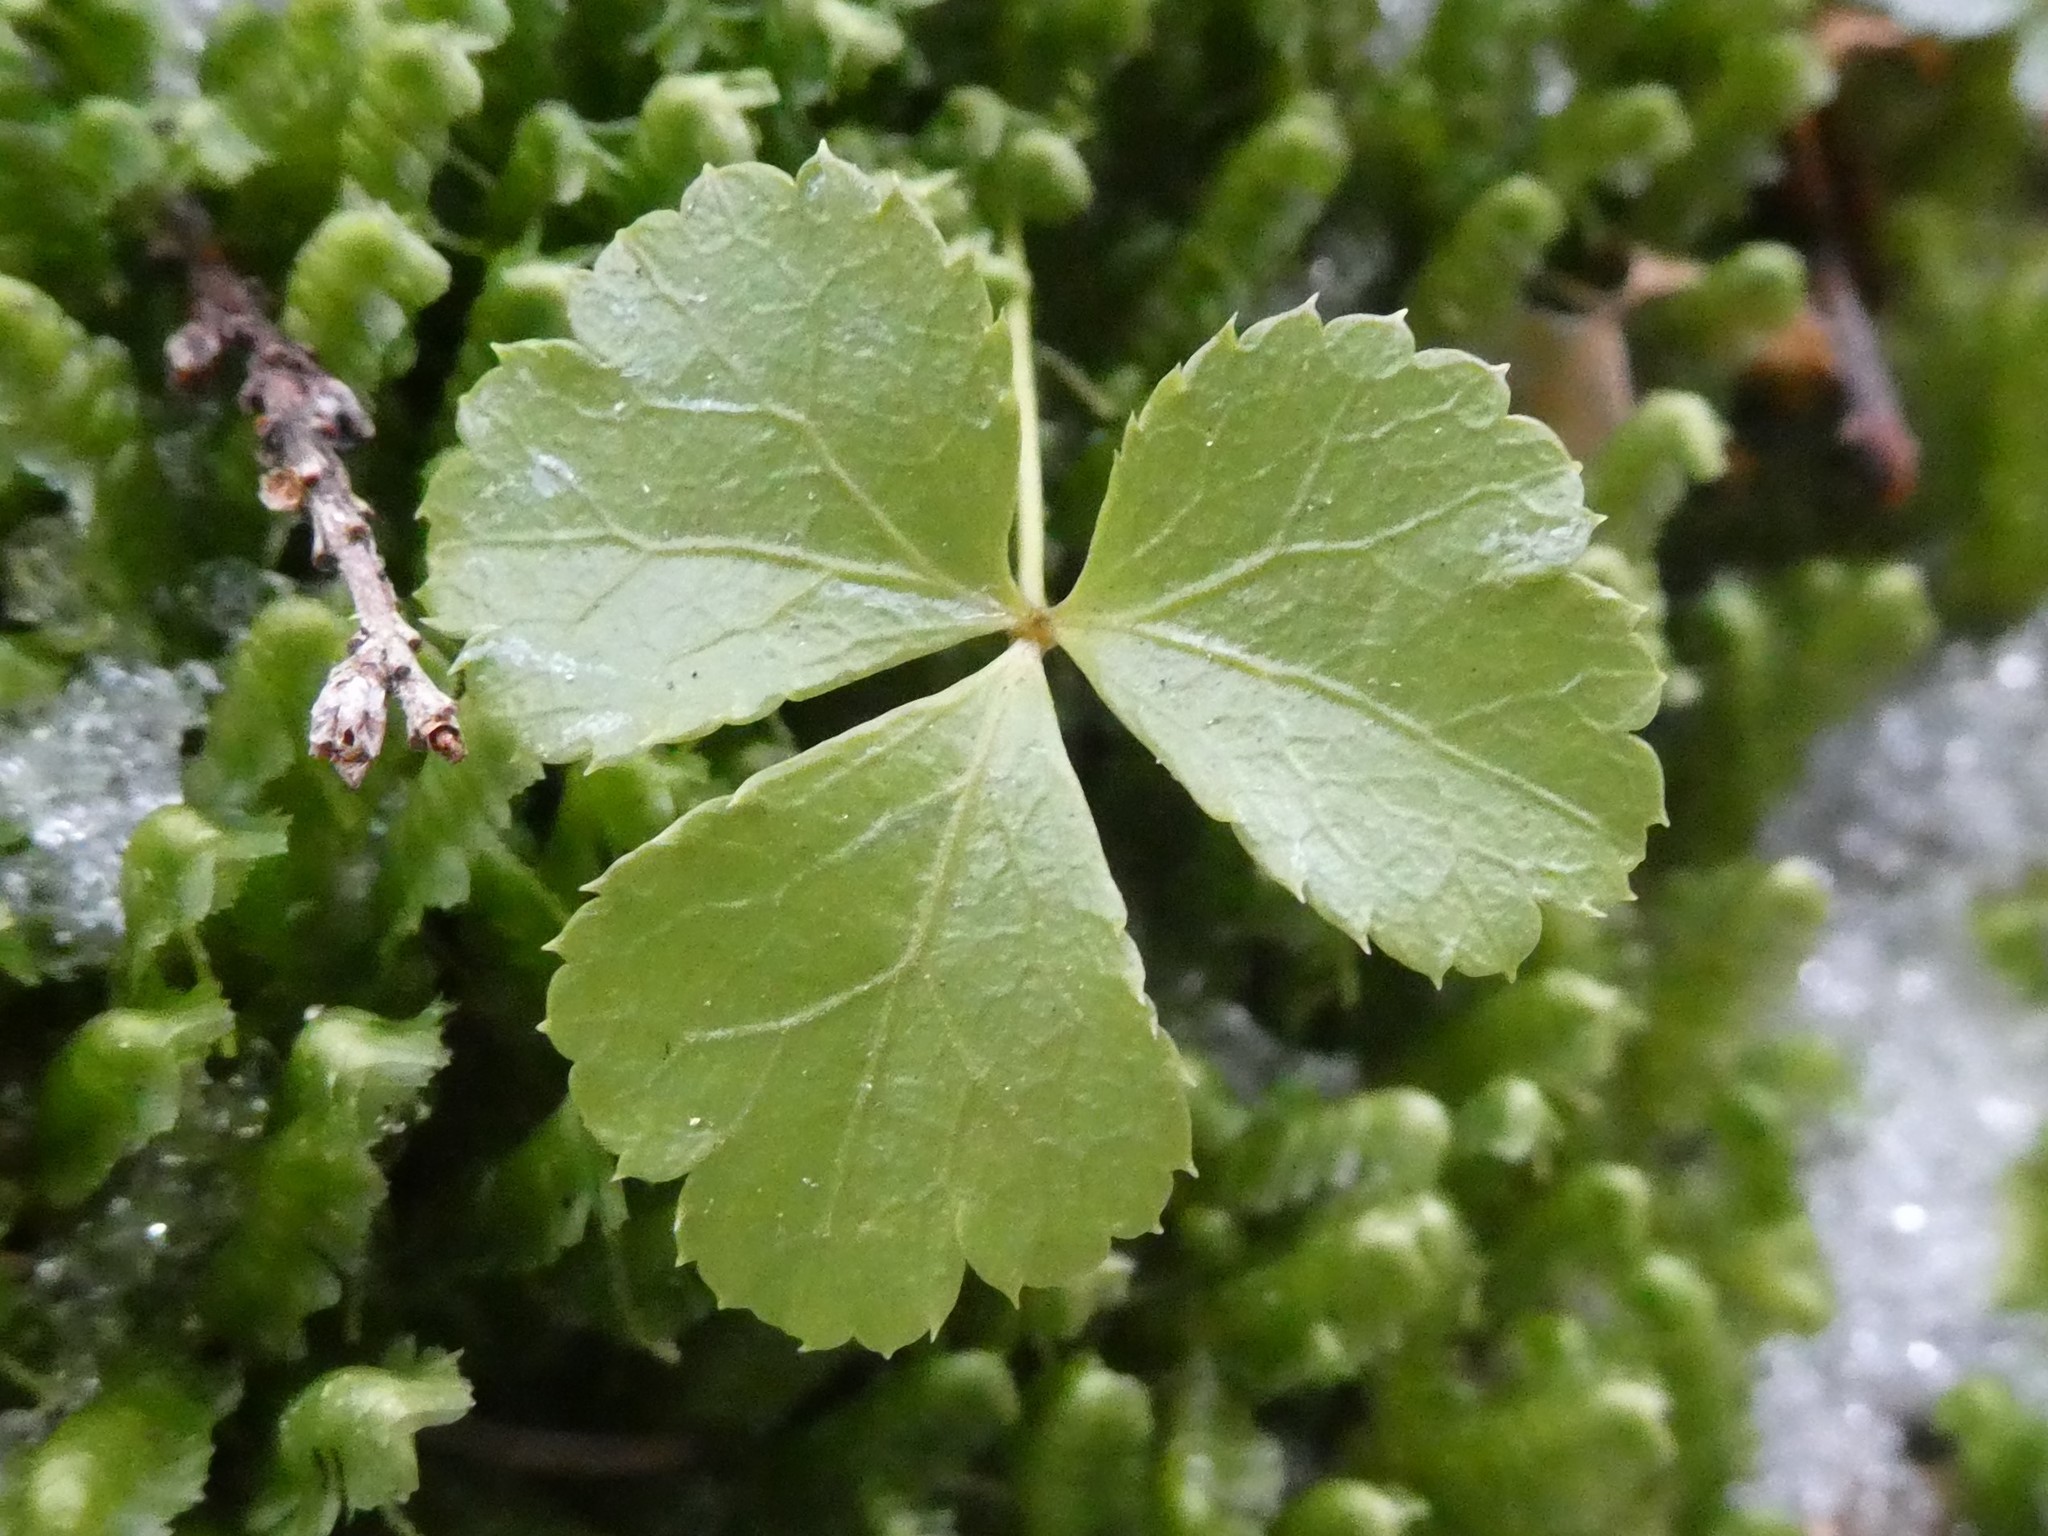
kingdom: Plantae
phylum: Tracheophyta
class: Magnoliopsida
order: Ranunculales
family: Ranunculaceae
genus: Coptis
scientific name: Coptis trifolia
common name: Canker-root
